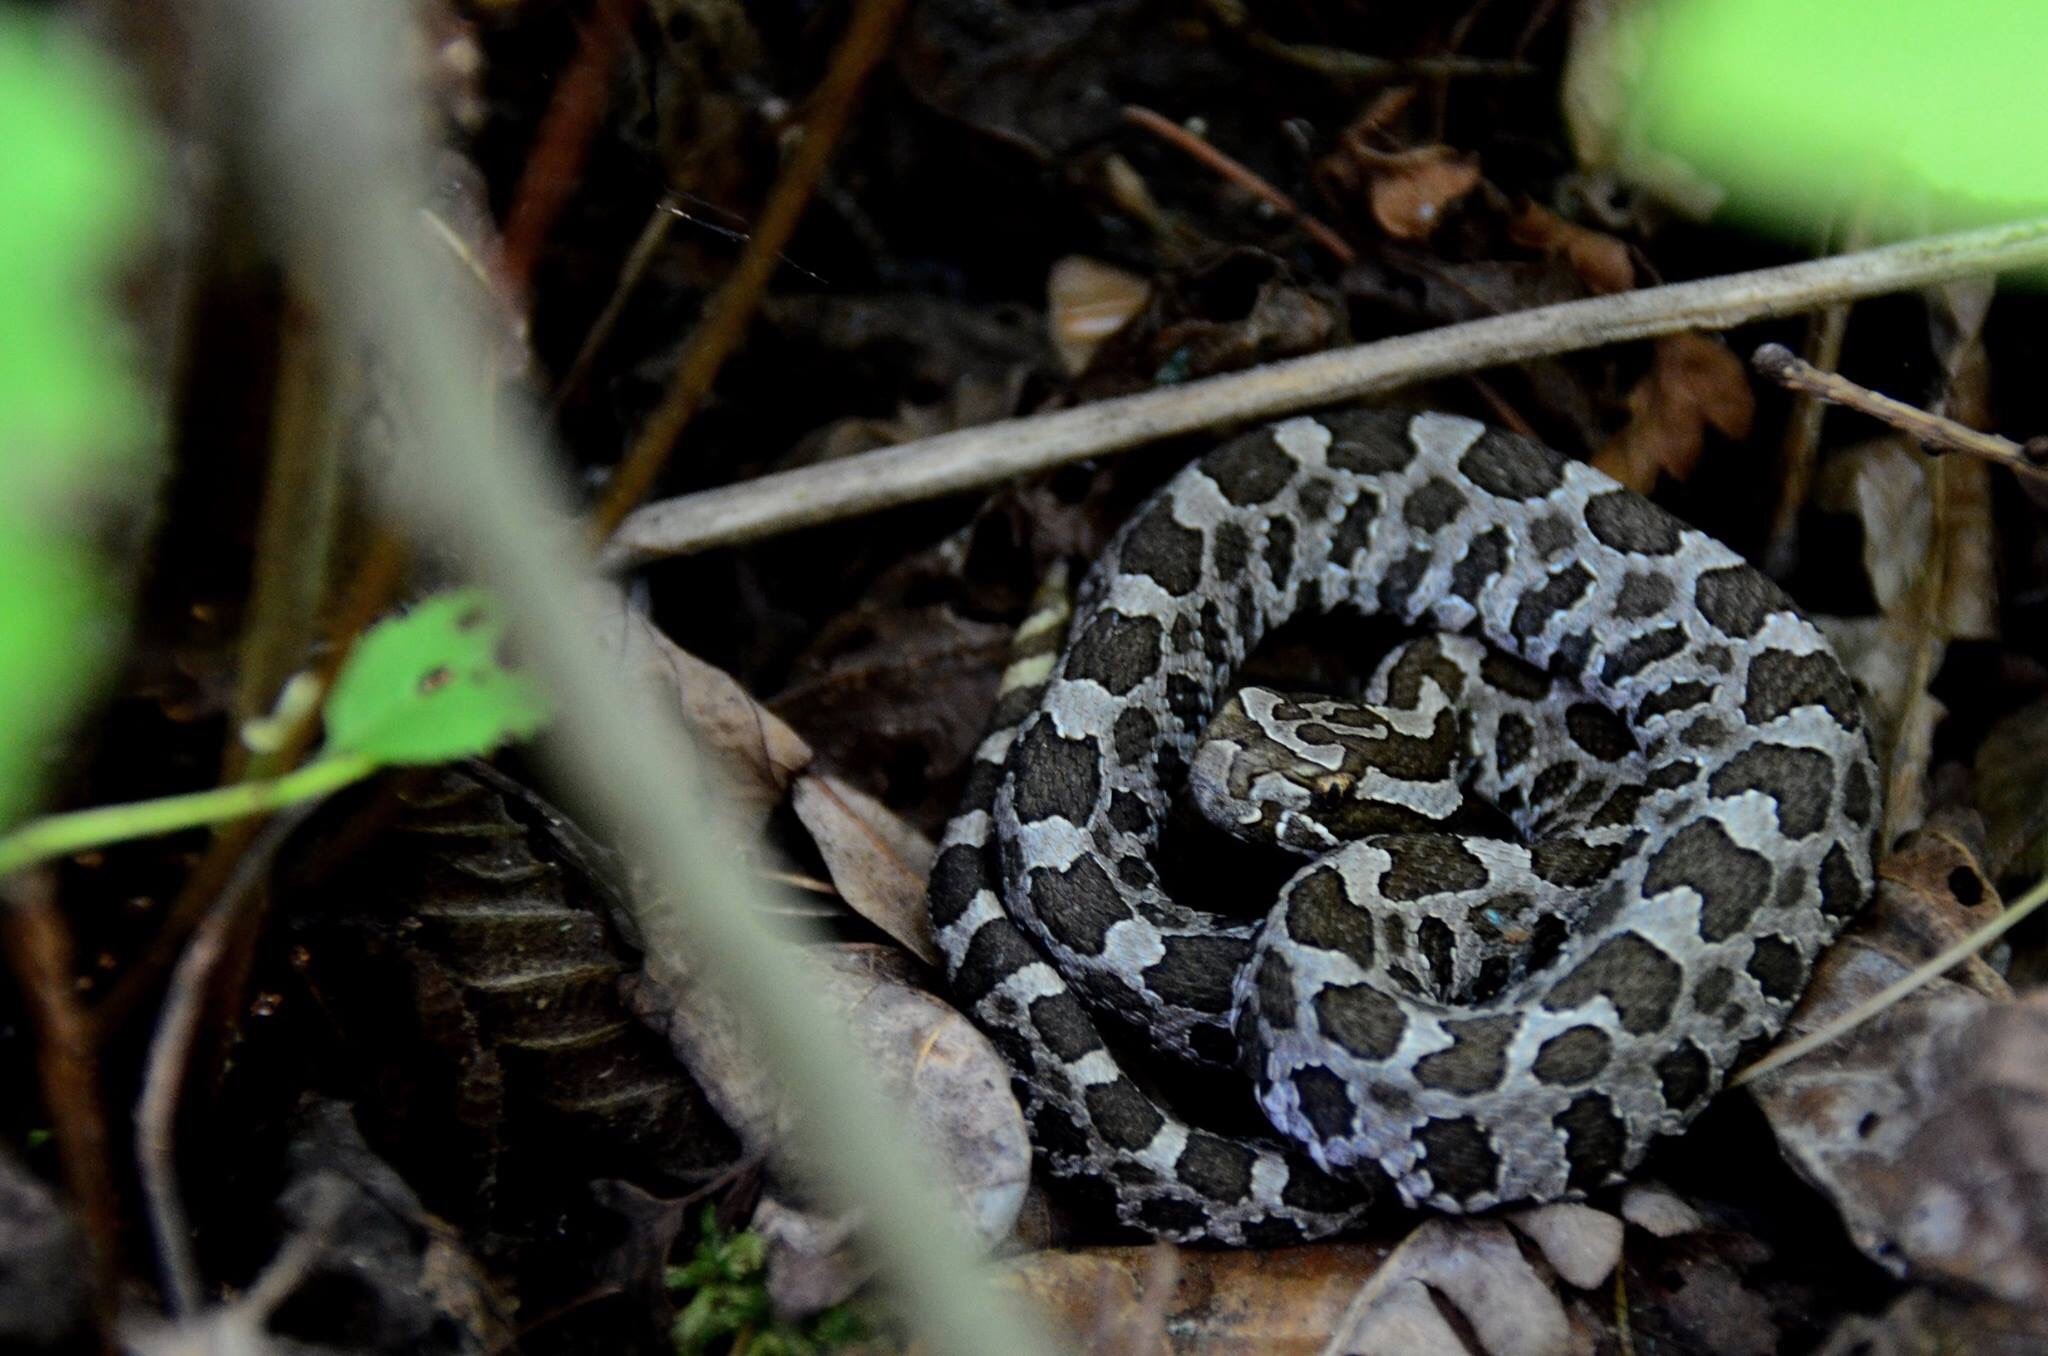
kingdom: Animalia
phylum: Chordata
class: Squamata
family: Viperidae
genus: Sistrurus
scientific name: Sistrurus catenatus
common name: Massasauga
